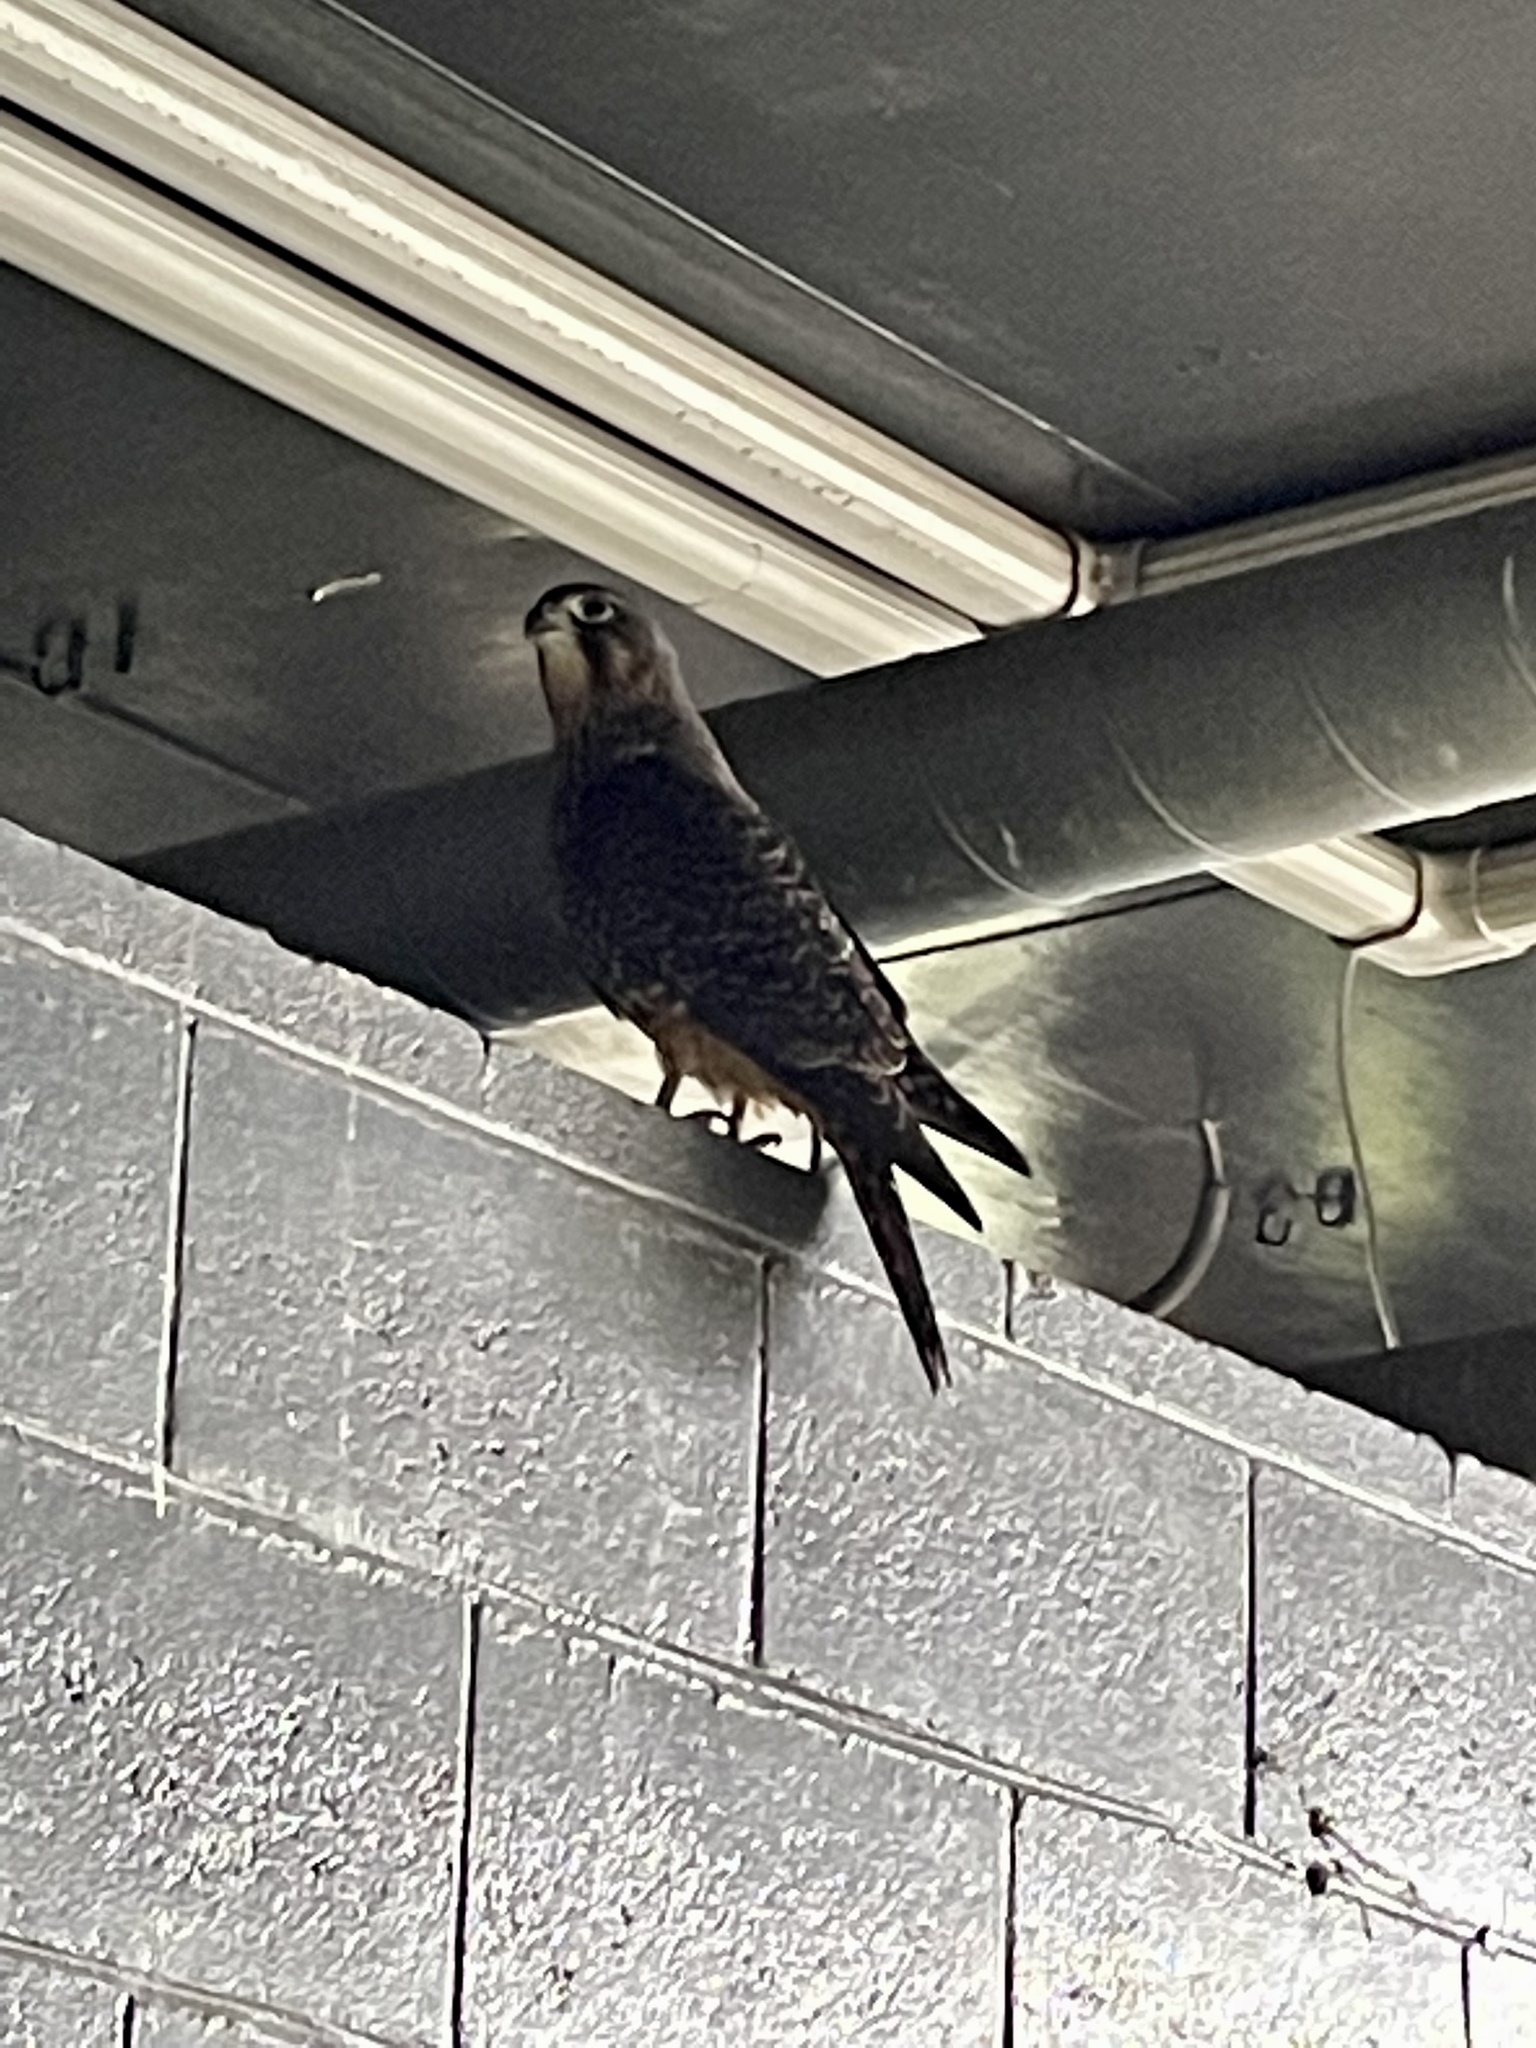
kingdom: Animalia
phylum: Chordata
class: Aves
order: Falconiformes
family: Falconidae
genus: Falco
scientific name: Falco novaeseelandiae
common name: New zealand falcon
